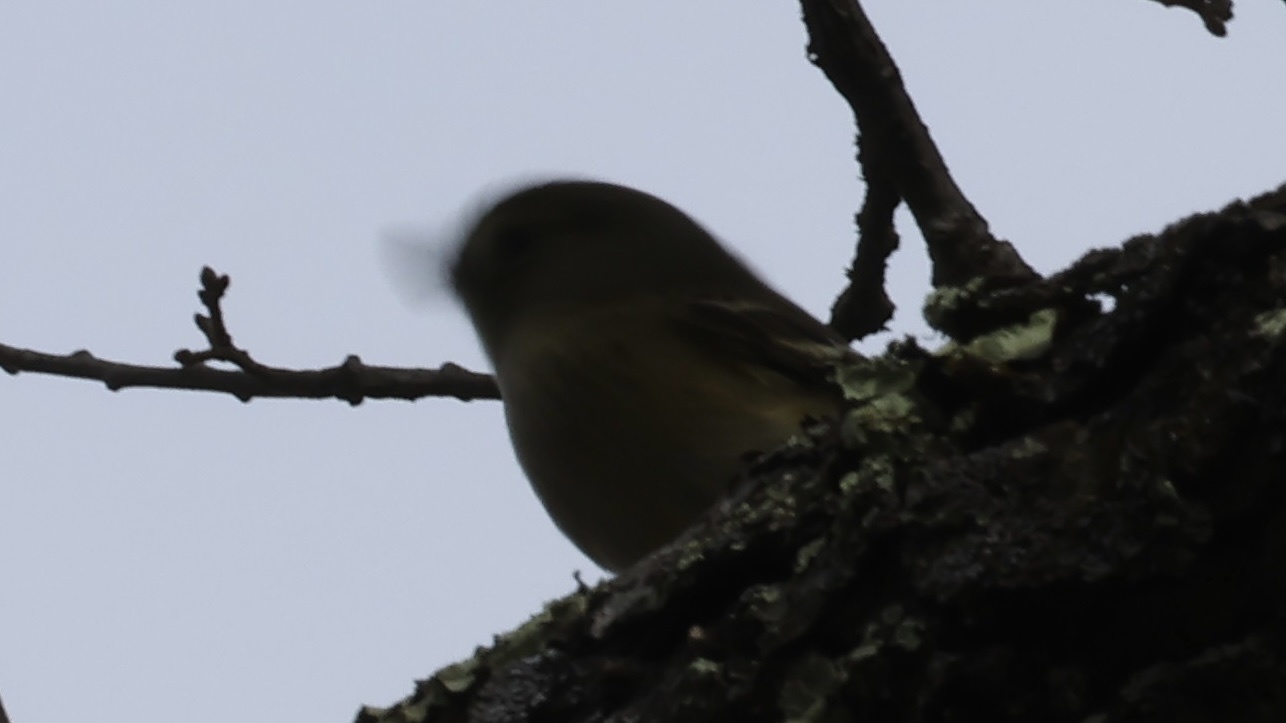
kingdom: Animalia
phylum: Chordata
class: Aves
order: Passeriformes
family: Vireonidae
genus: Vireo
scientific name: Vireo huttoni
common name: Hutton's vireo
